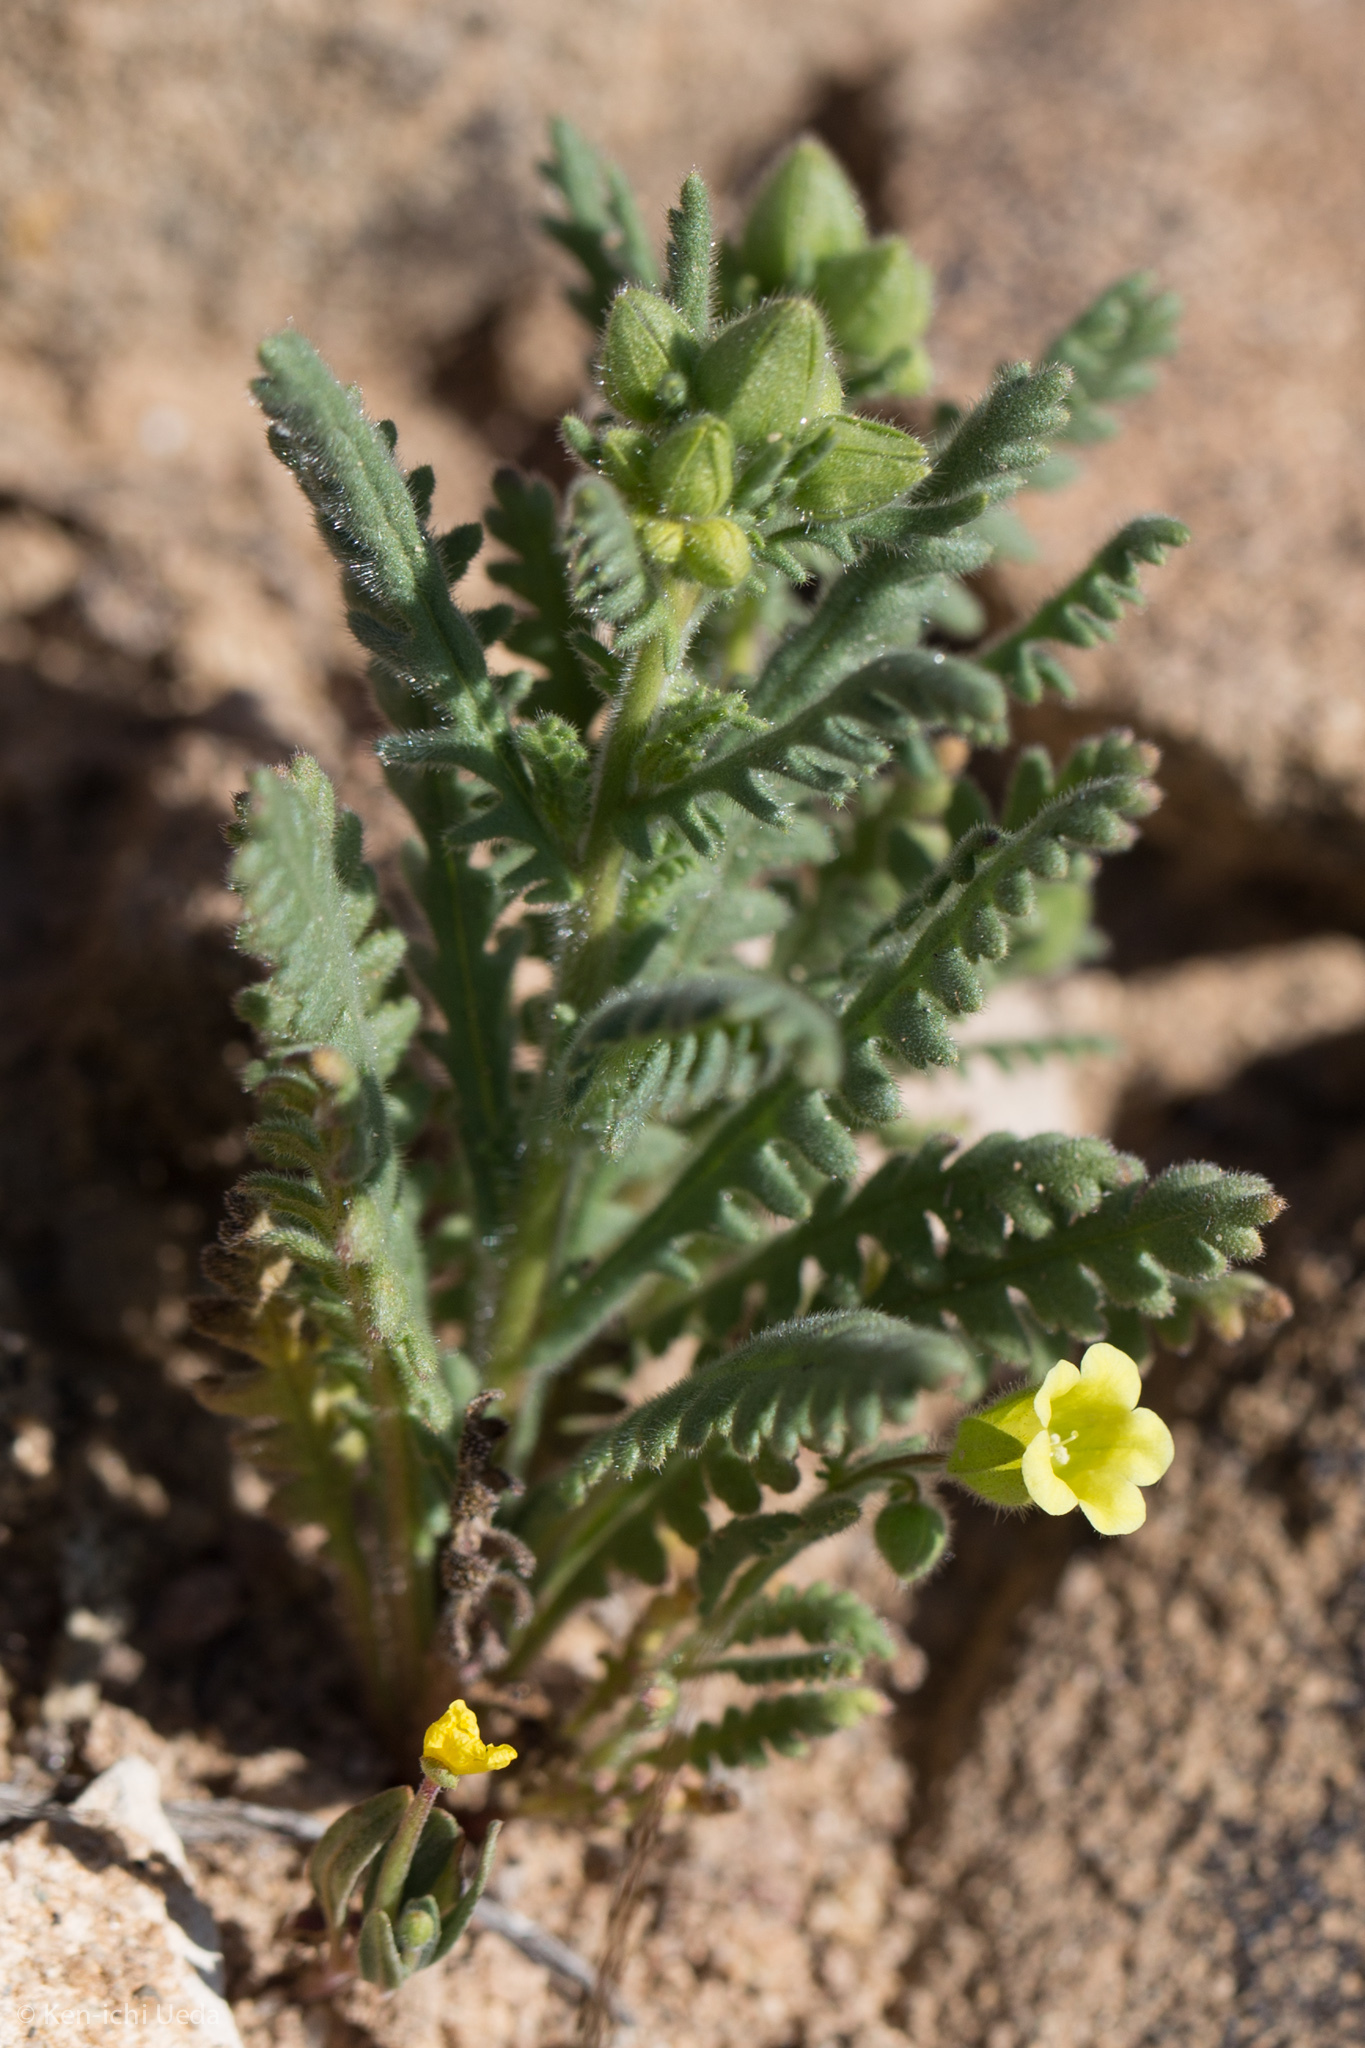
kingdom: Plantae
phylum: Tracheophyta
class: Magnoliopsida
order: Boraginales
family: Hydrophyllaceae
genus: Emmenanthe
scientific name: Emmenanthe penduliflora
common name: Whispering-bells
